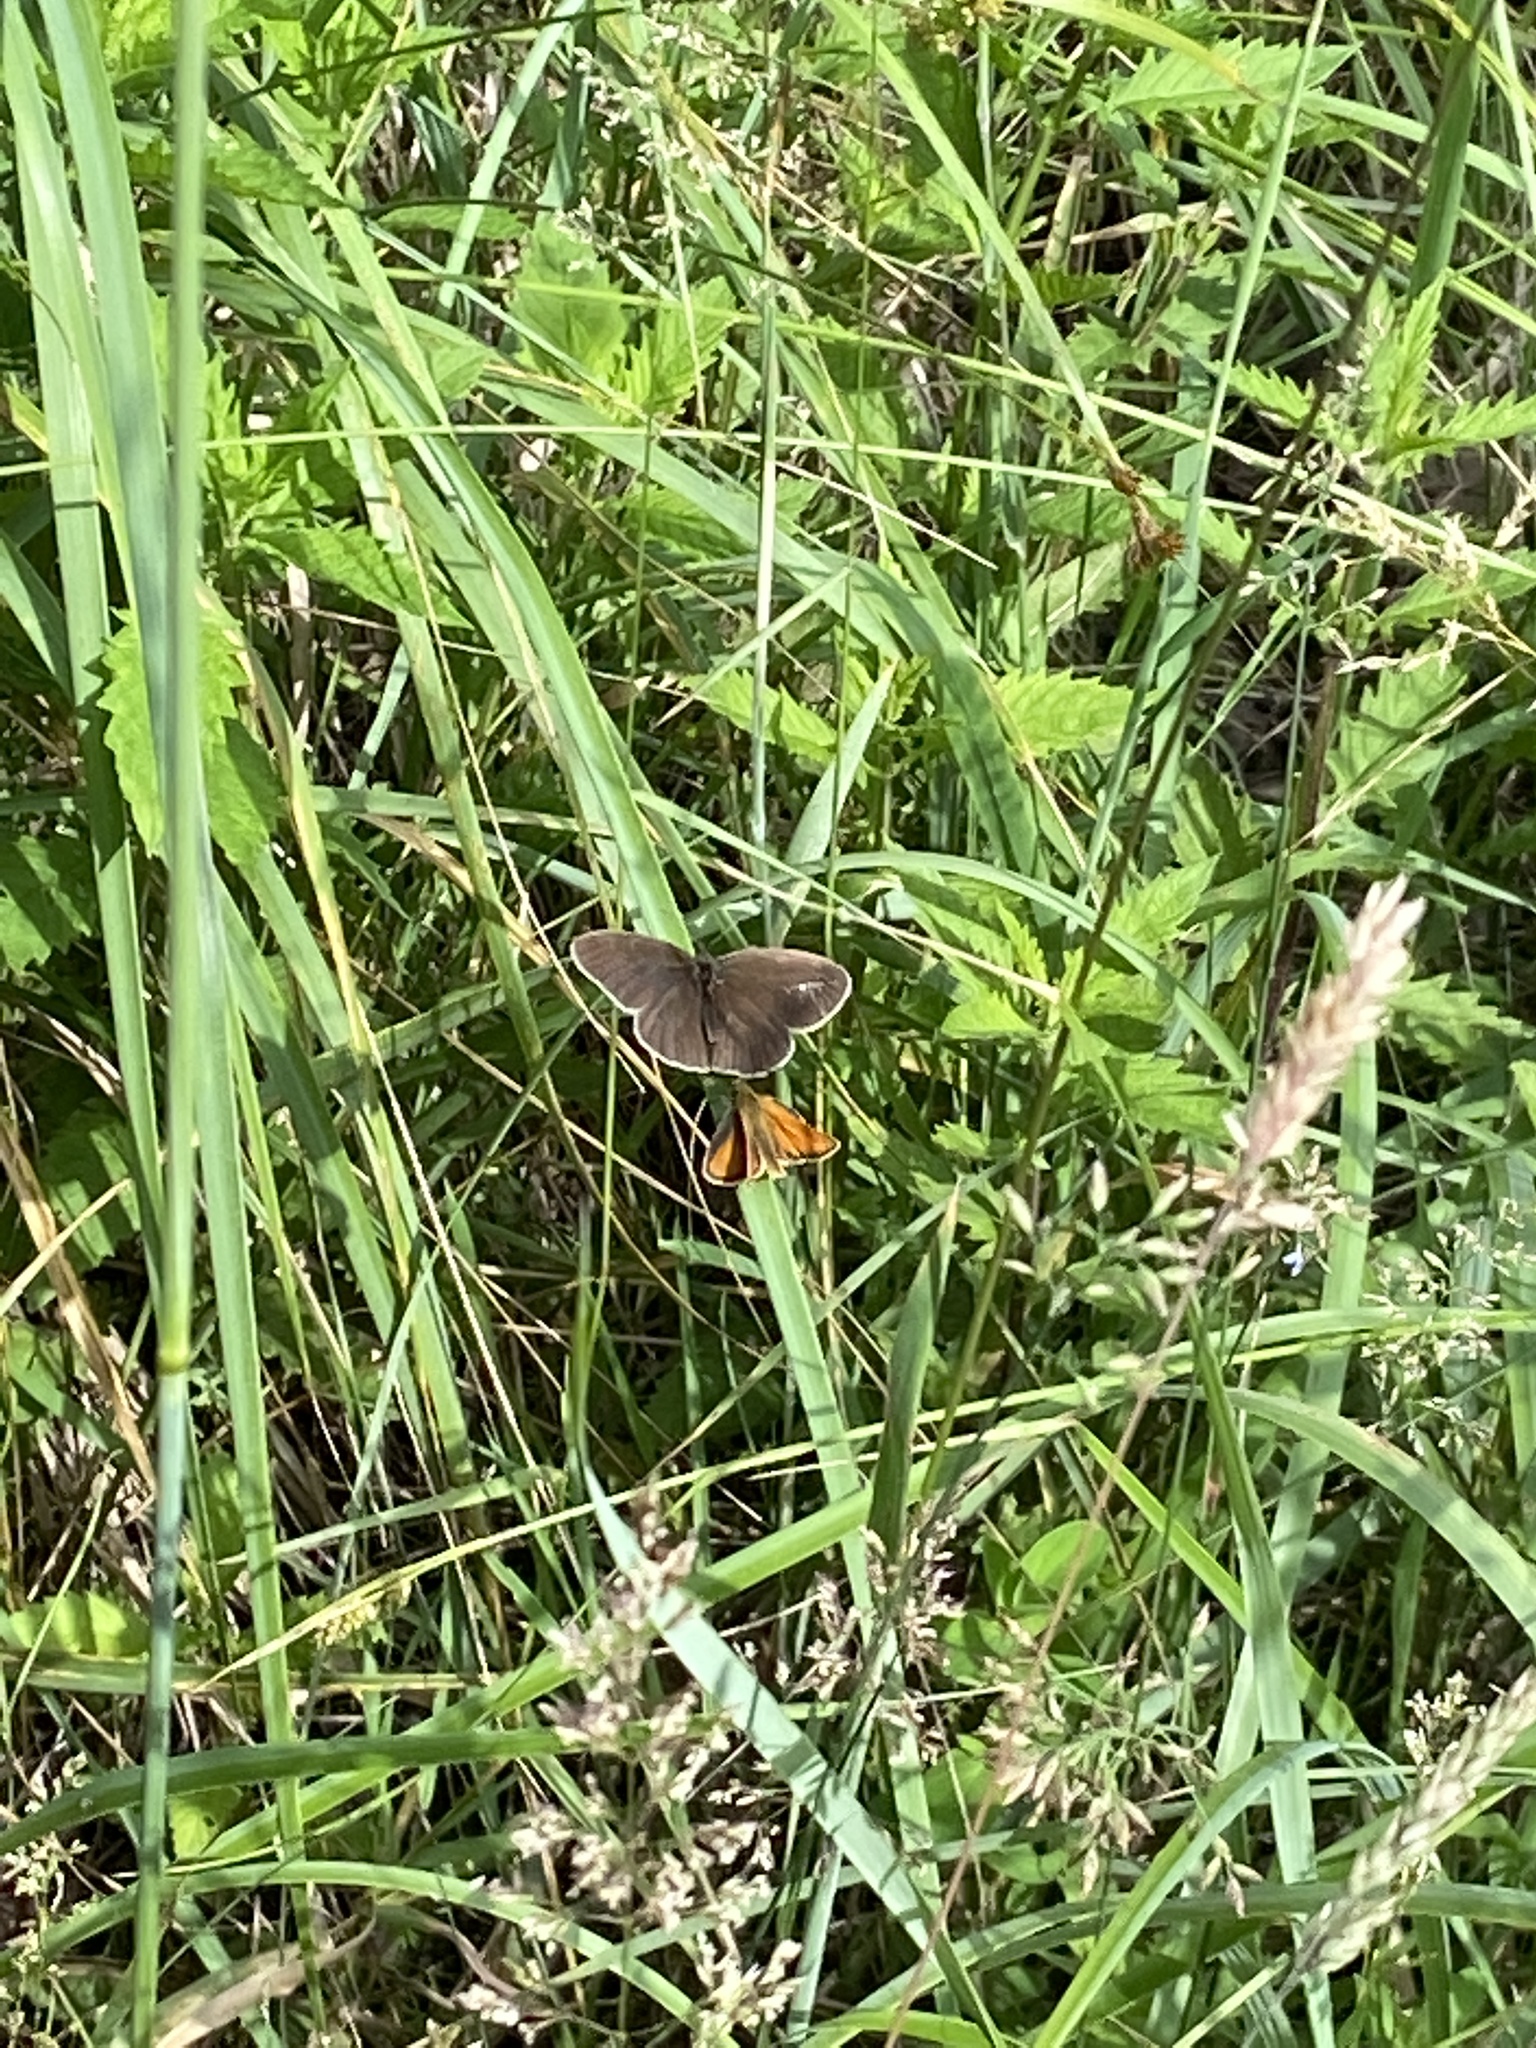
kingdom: Animalia
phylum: Arthropoda
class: Insecta
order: Lepidoptera
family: Nymphalidae
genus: Aphantopus
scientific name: Aphantopus hyperantus
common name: Ringlet
